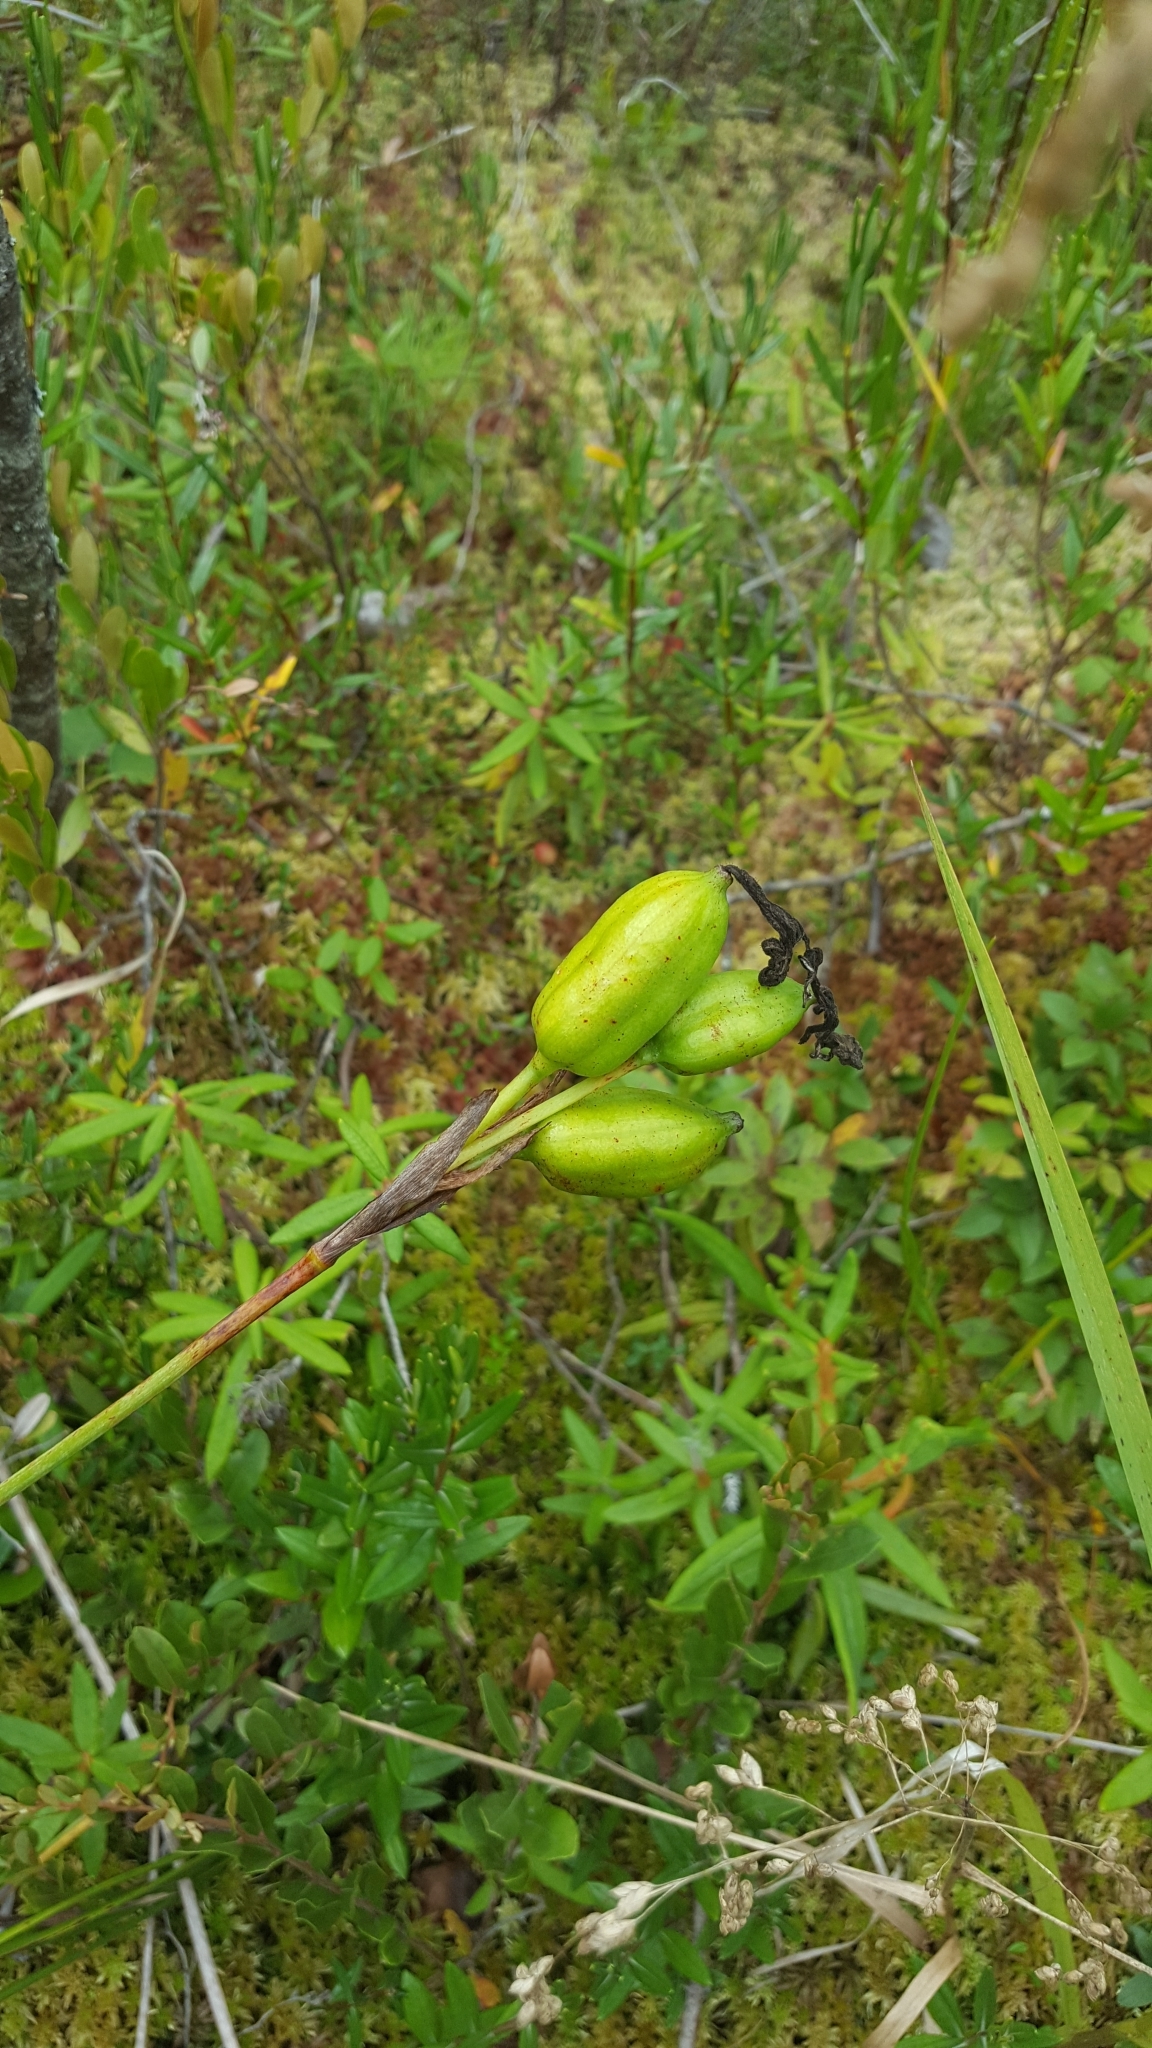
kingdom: Plantae
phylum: Tracheophyta
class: Liliopsida
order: Asparagales
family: Iridaceae
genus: Iris
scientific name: Iris versicolor
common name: Purple iris
